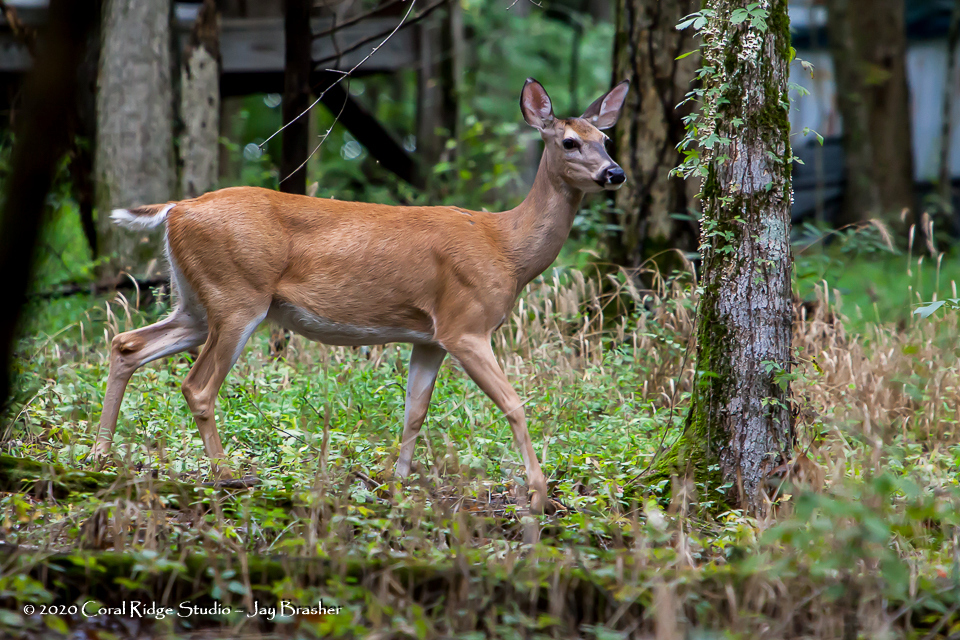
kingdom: Animalia
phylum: Chordata
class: Mammalia
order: Artiodactyla
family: Cervidae
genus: Odocoileus
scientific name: Odocoileus virginianus
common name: White-tailed deer
